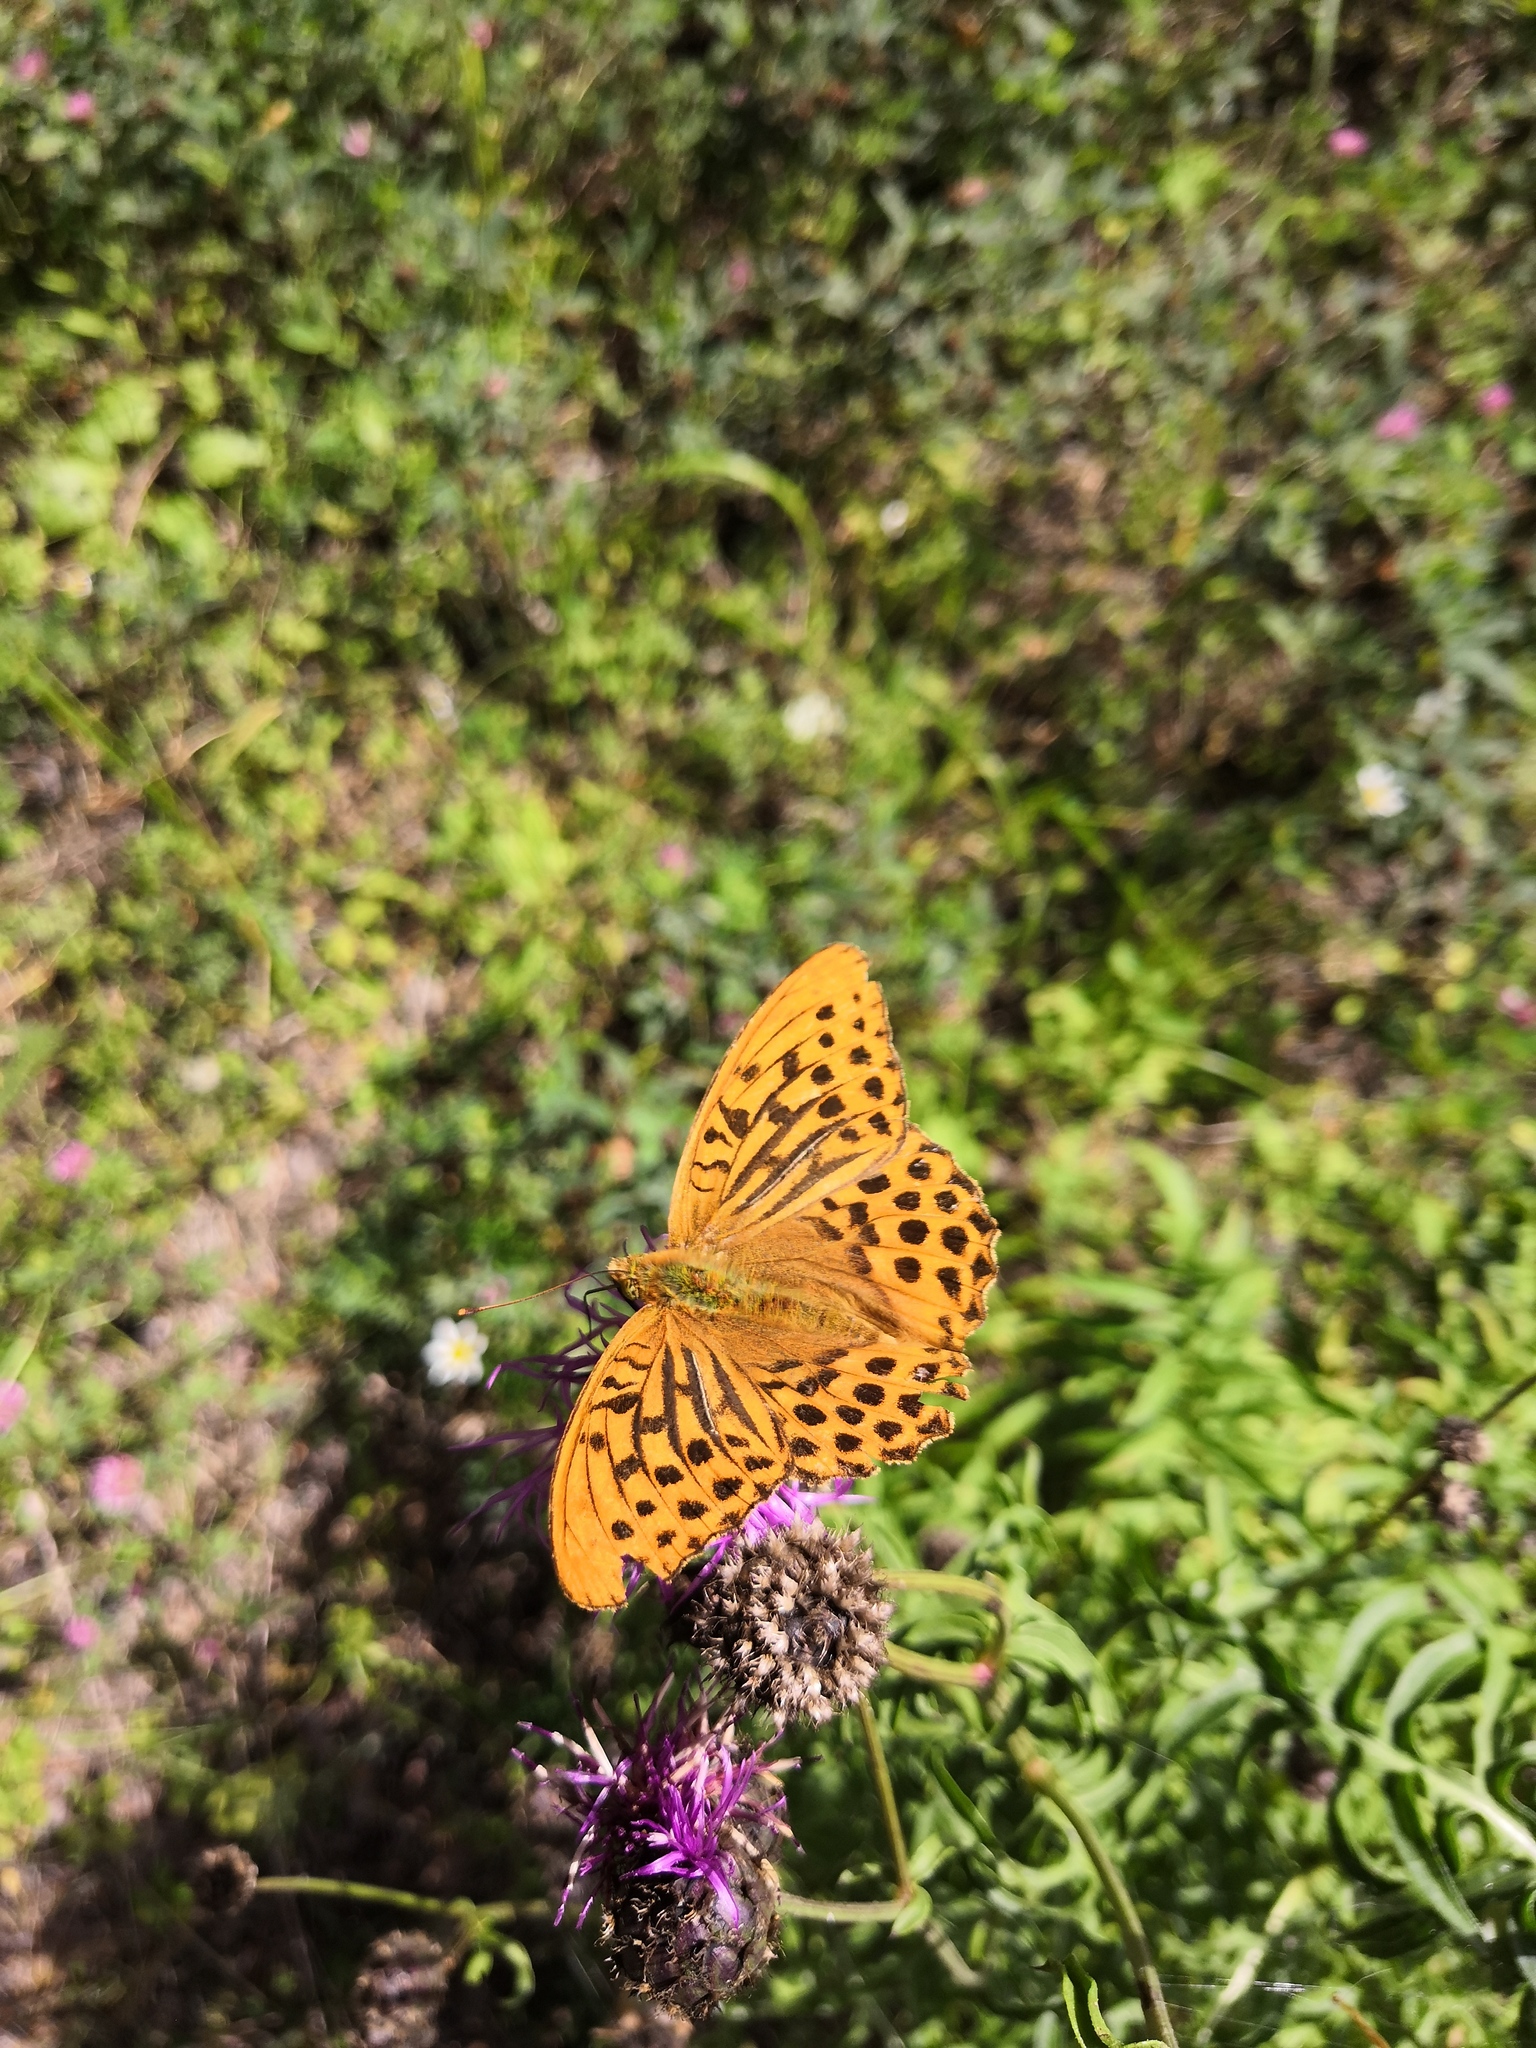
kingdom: Animalia
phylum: Arthropoda
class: Insecta
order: Lepidoptera
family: Nymphalidae
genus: Argynnis
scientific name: Argynnis paphia
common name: Silver-washed fritillary
